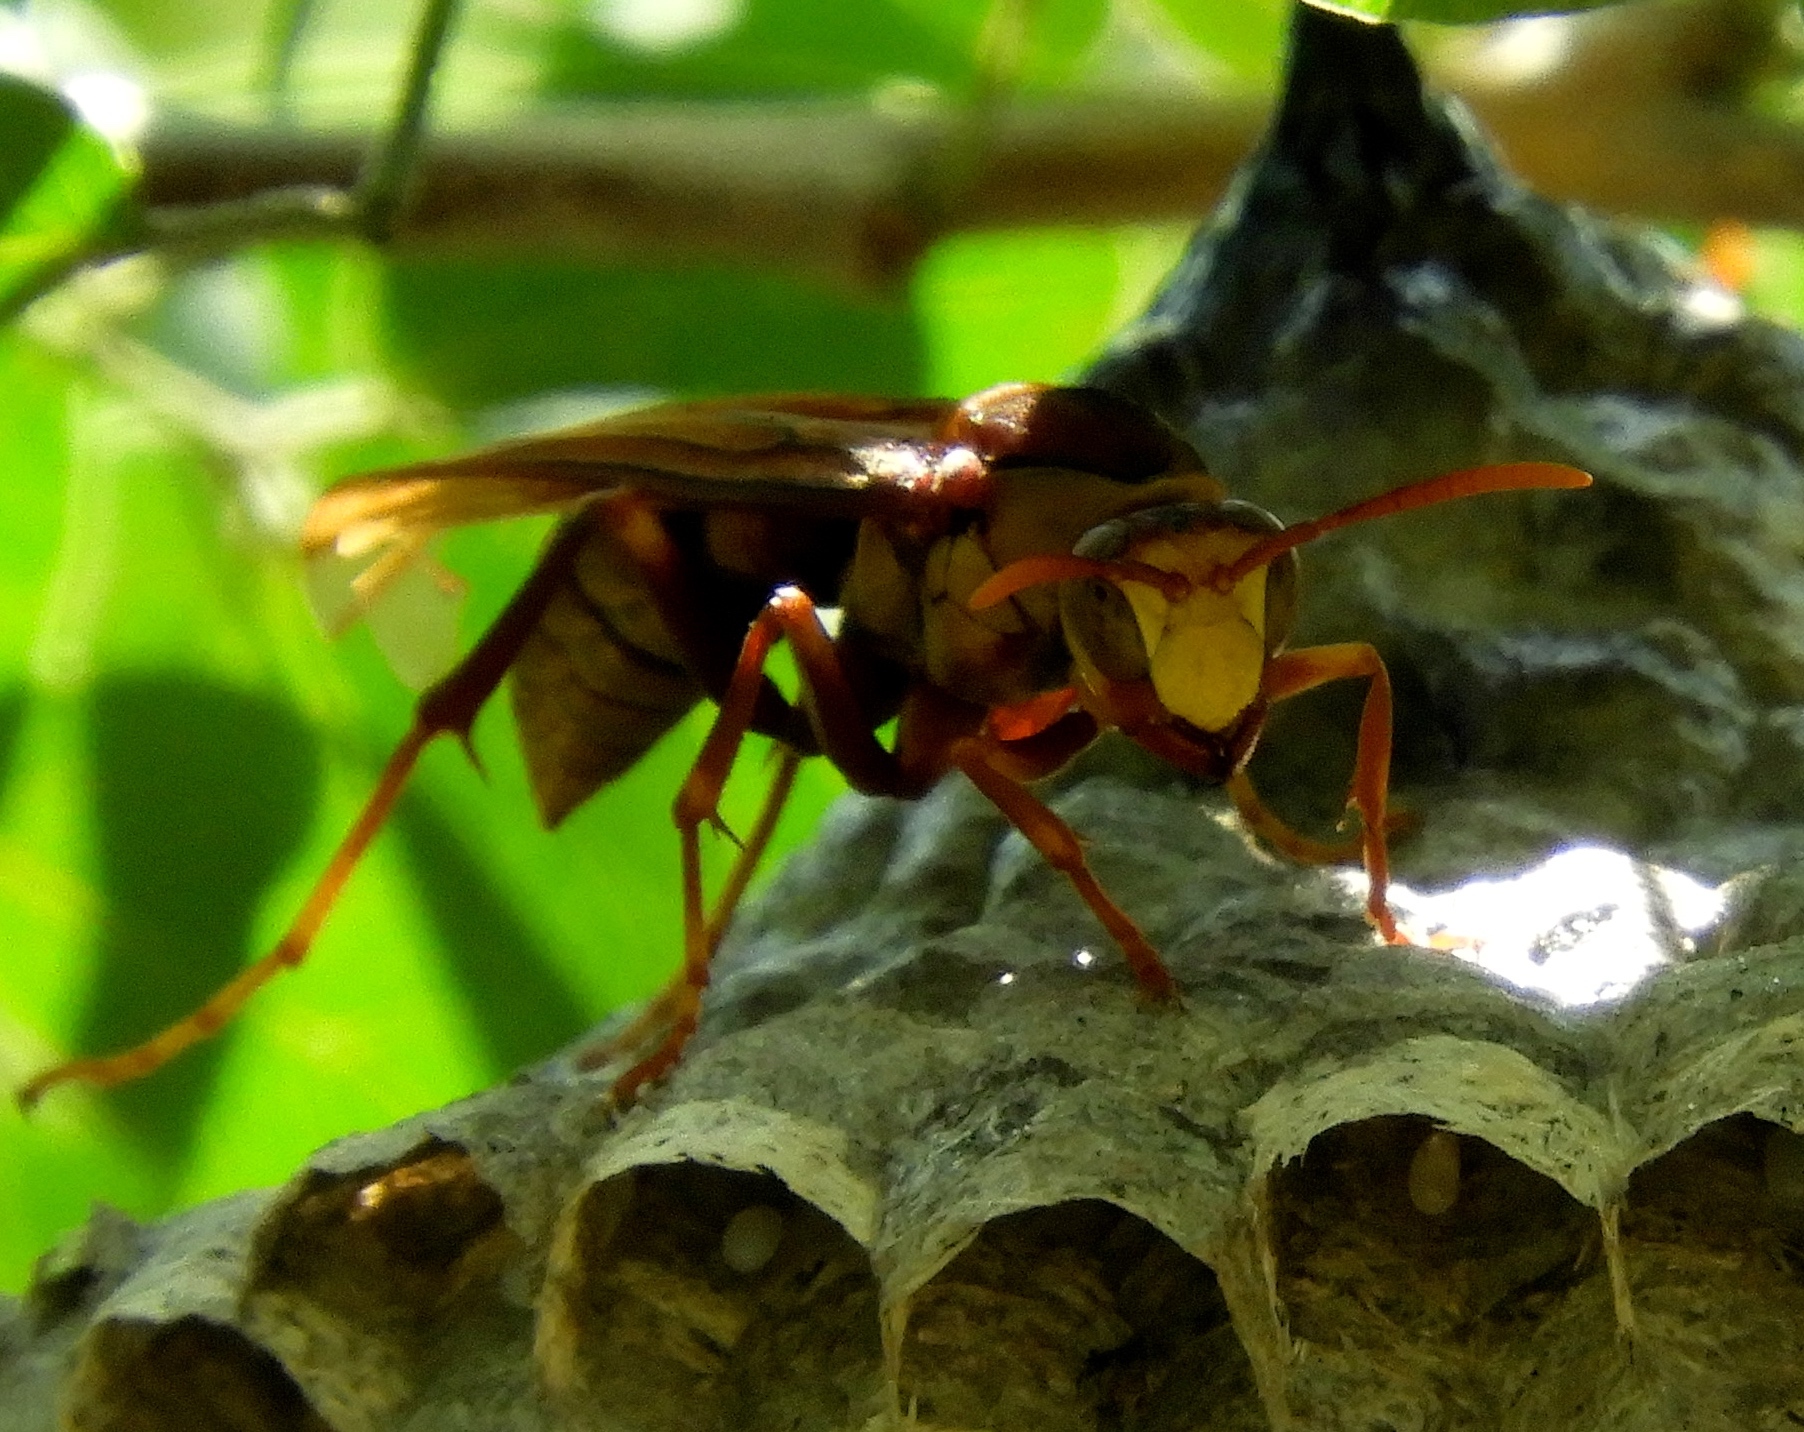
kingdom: Animalia
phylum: Arthropoda
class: Insecta
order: Hymenoptera
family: Eumenidae
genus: Polistes
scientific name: Polistes carnifex
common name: Paper wasp
